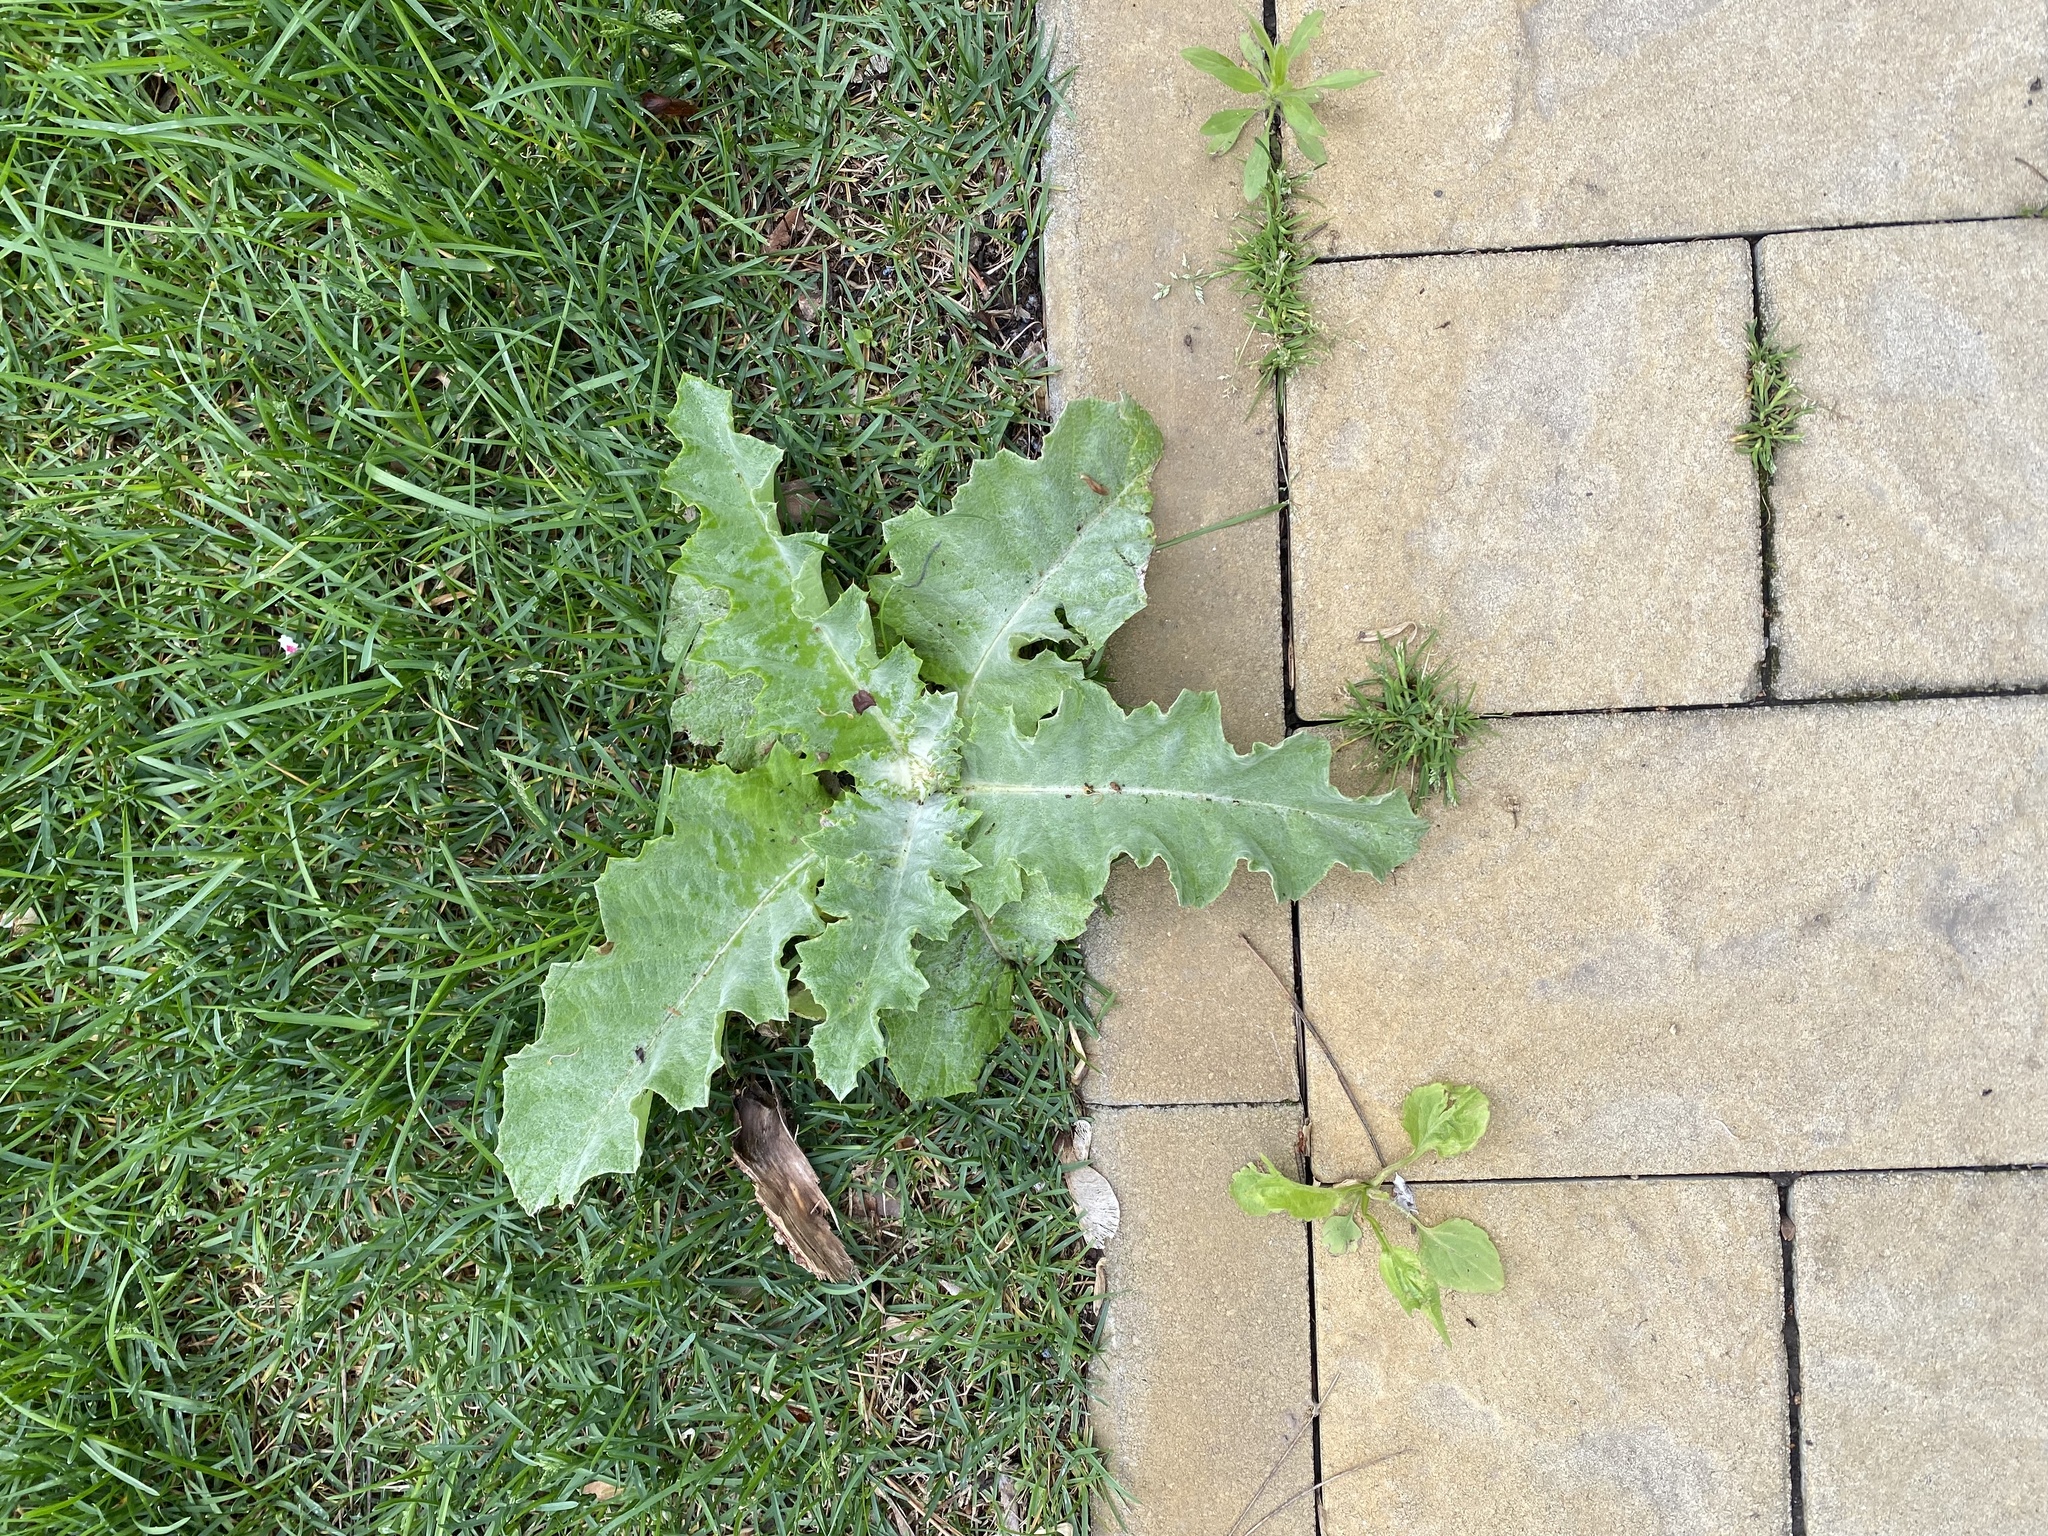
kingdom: Plantae
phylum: Tracheophyta
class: Magnoliopsida
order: Asterales
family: Asteraceae
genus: Onopordum
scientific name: Onopordum acanthium
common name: Scotch thistle
